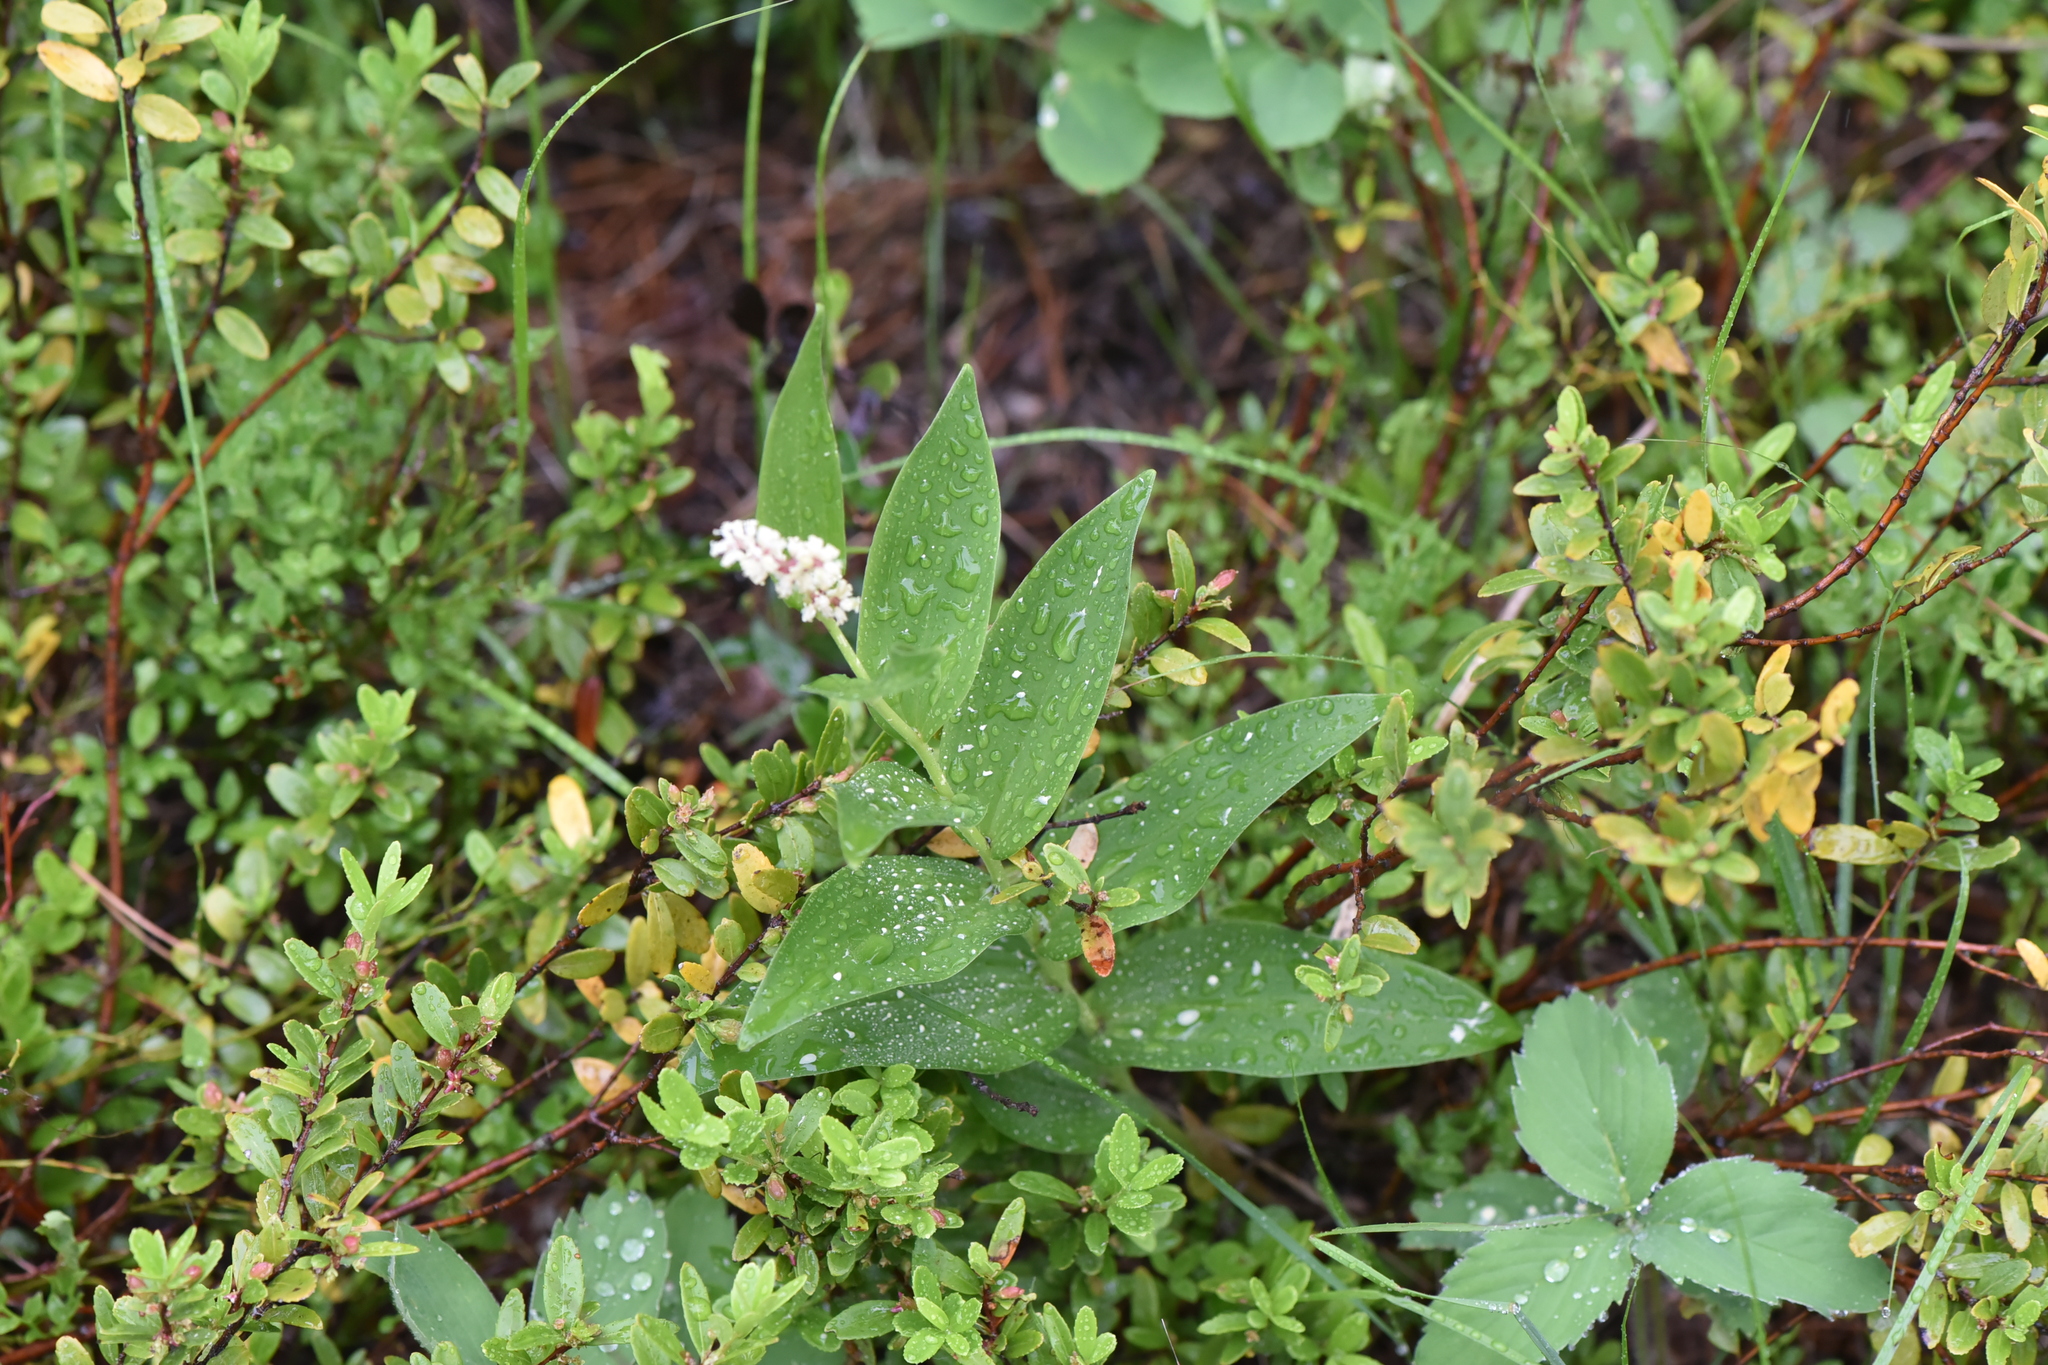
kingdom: Plantae
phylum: Tracheophyta
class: Liliopsida
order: Asparagales
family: Asparagaceae
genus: Maianthemum
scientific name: Maianthemum racemosum
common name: False spikenard
